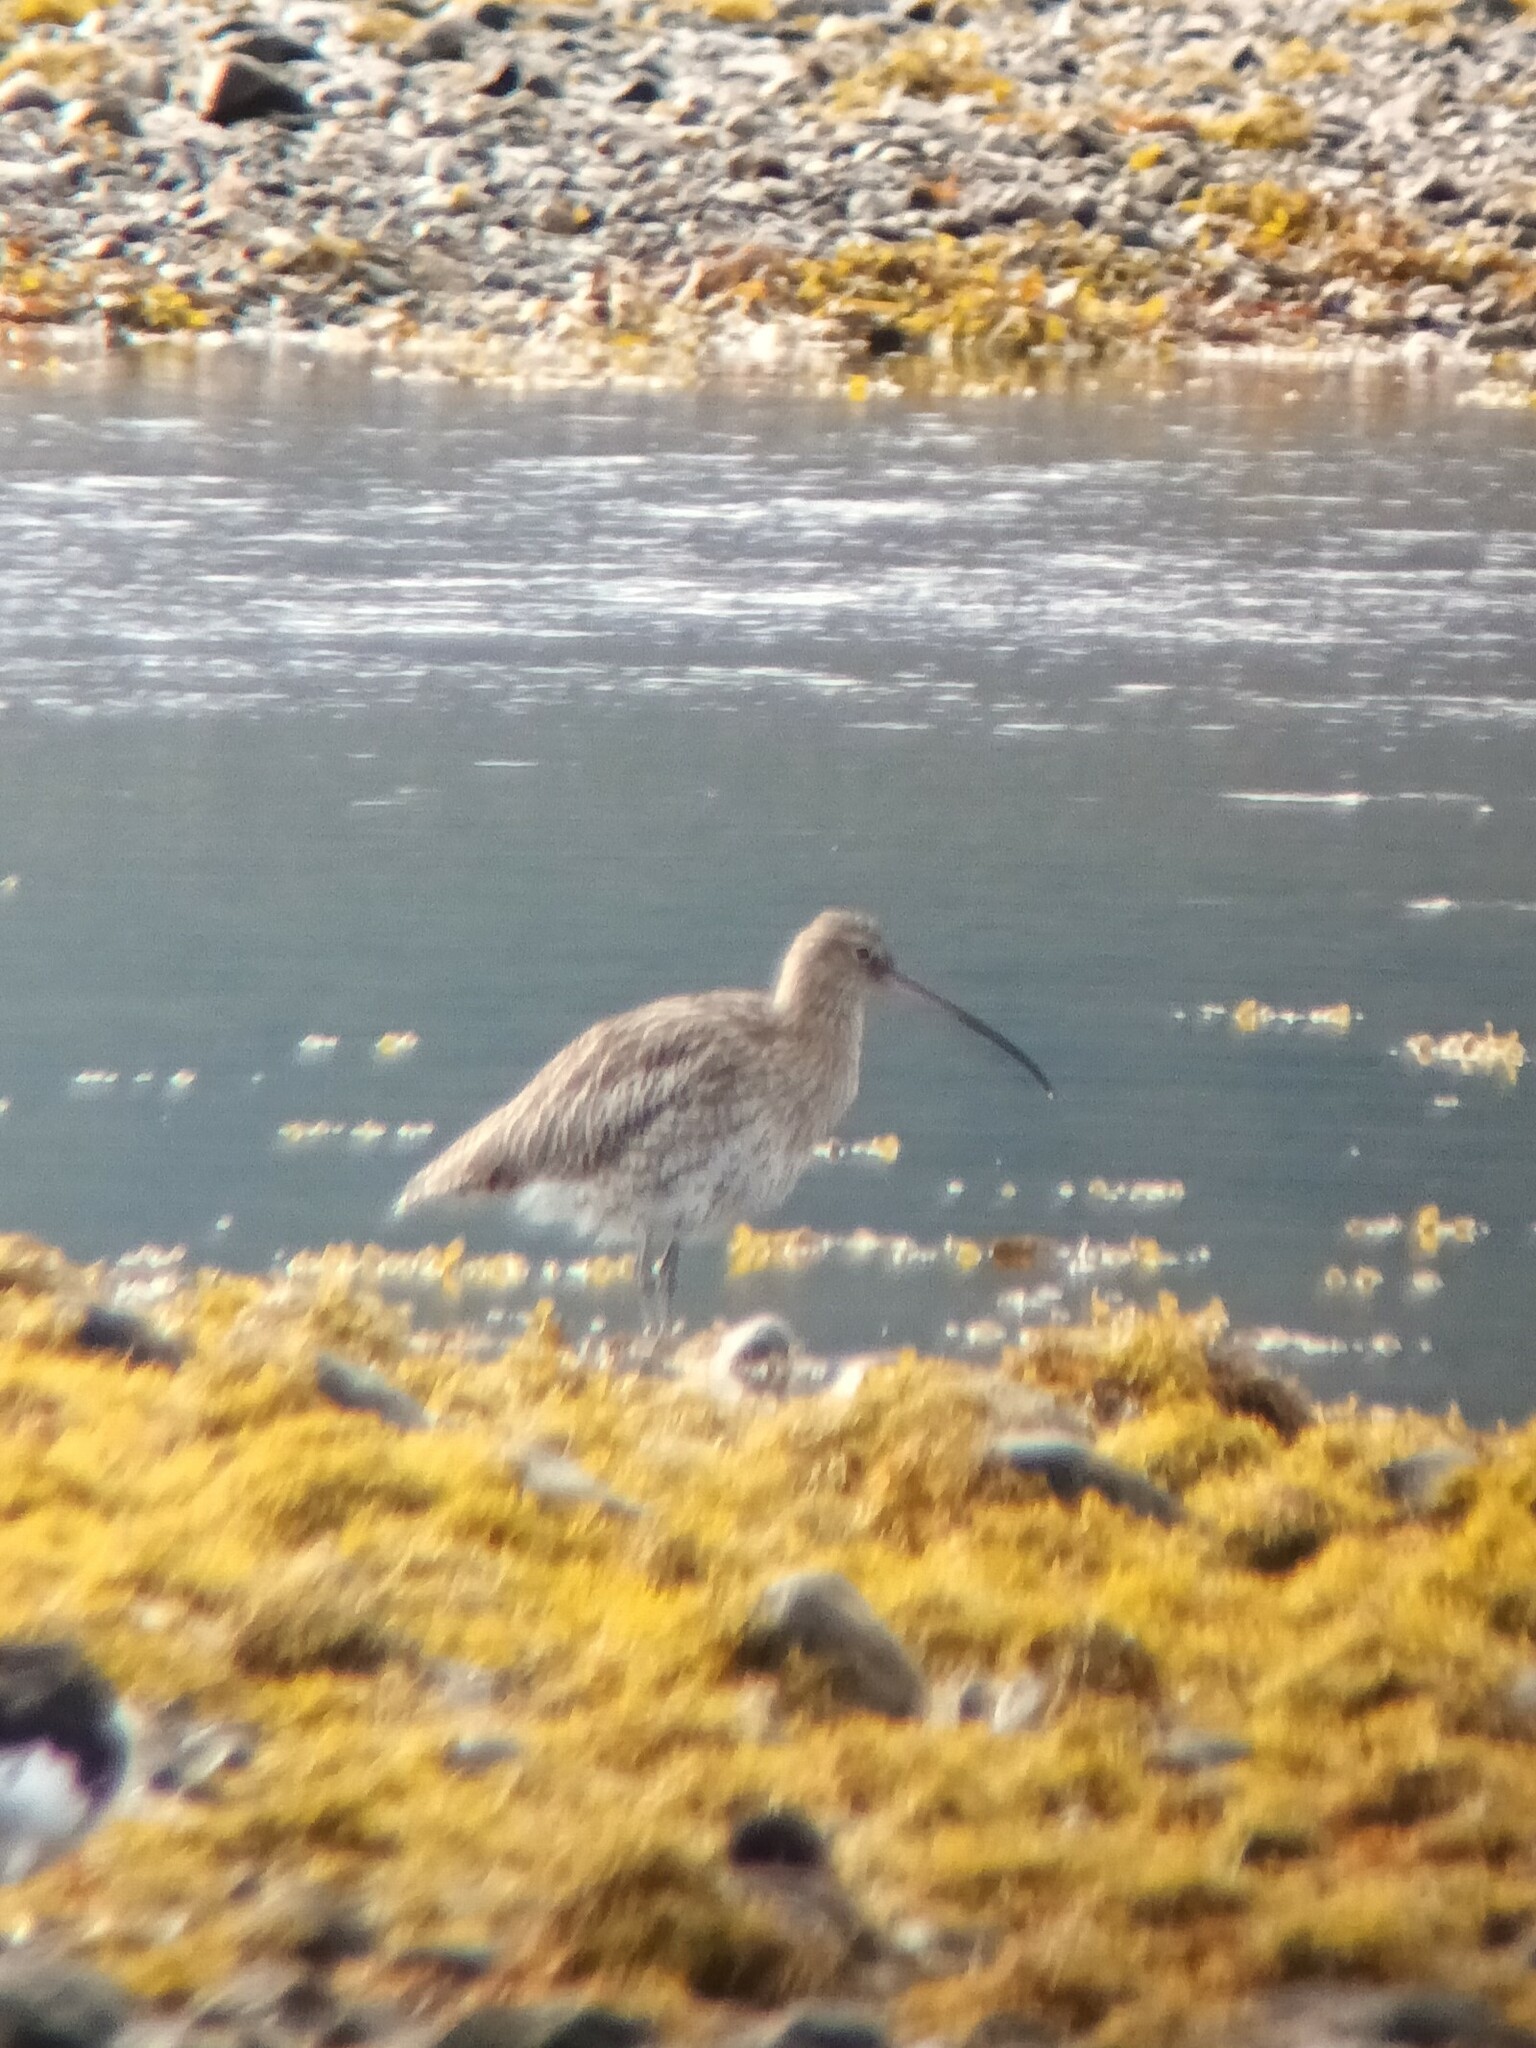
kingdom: Animalia
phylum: Chordata
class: Aves
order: Charadriiformes
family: Scolopacidae
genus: Numenius
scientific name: Numenius arquata
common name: Eurasian curlew
